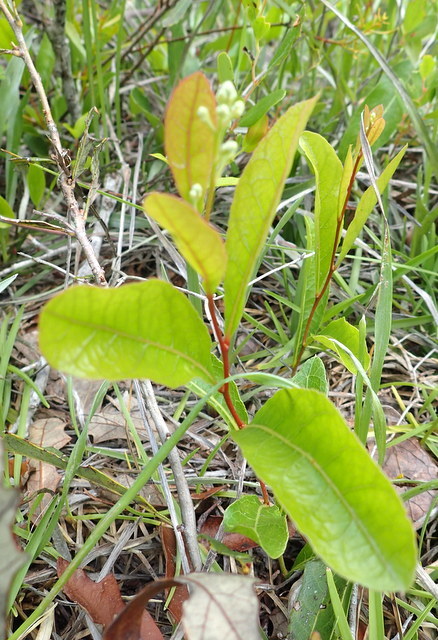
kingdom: Plantae
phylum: Tracheophyta
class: Magnoliopsida
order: Malpighiales
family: Chrysobalanaceae
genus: Geobalanus
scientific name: Geobalanus oblongifolius
